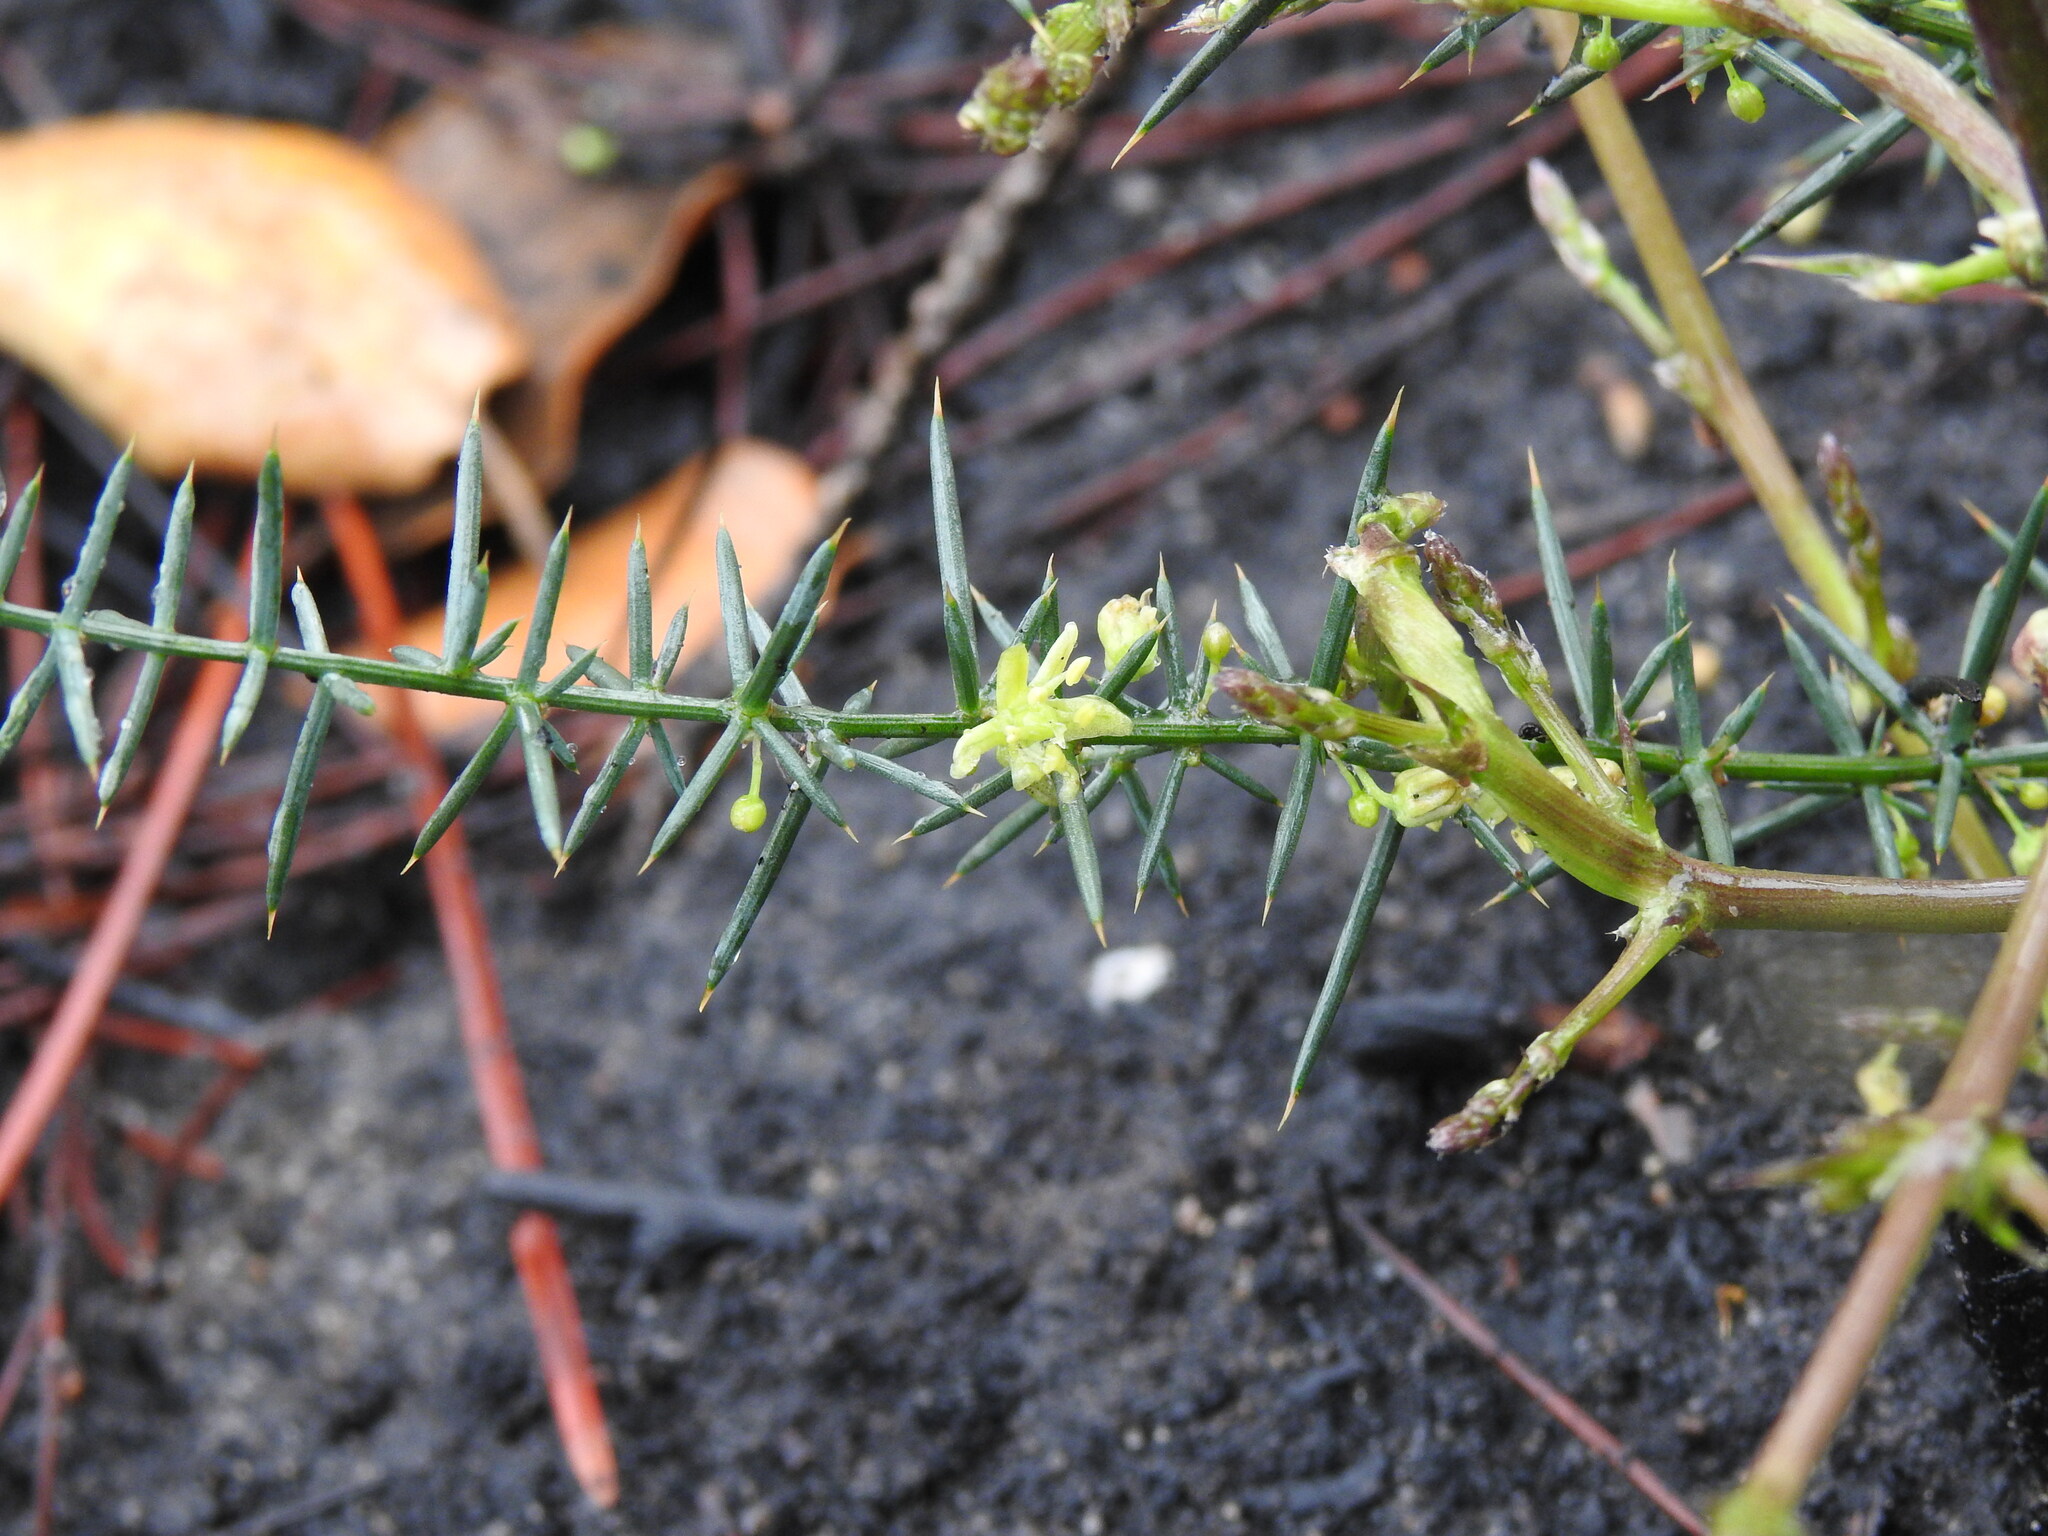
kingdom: Plantae
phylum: Tracheophyta
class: Liliopsida
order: Asparagales
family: Asparagaceae
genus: Asparagus
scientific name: Asparagus aphyllus
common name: Mediterranean asparagus
